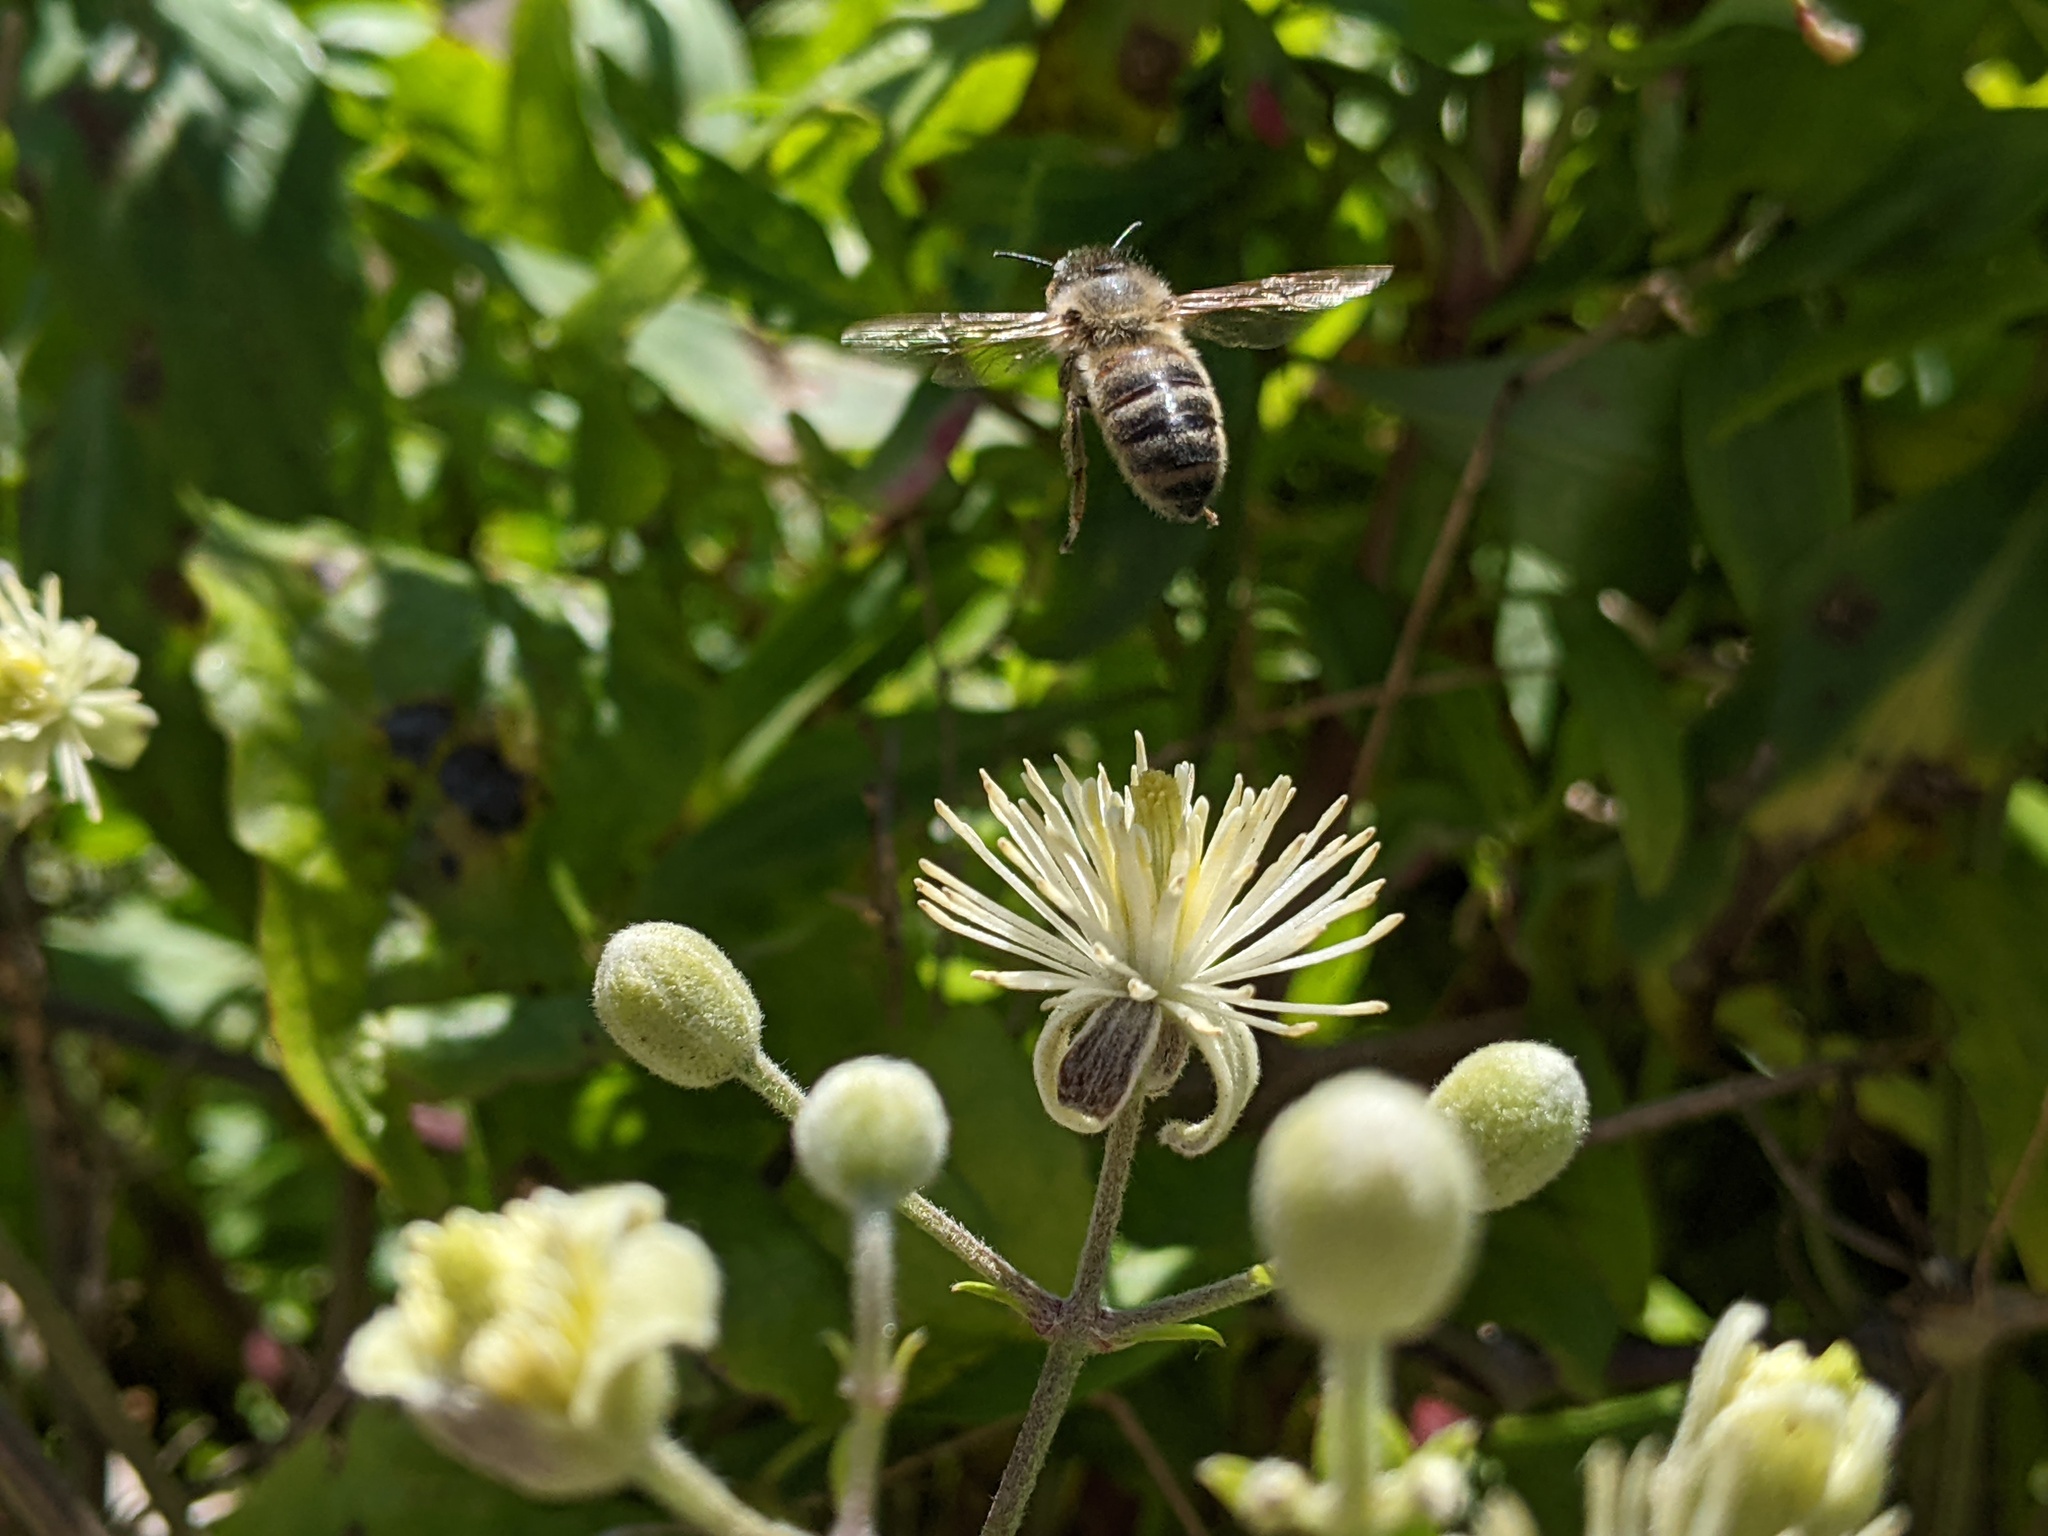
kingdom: Animalia
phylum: Arthropoda
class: Insecta
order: Hymenoptera
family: Apidae
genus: Apis
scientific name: Apis mellifera
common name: Honey bee
